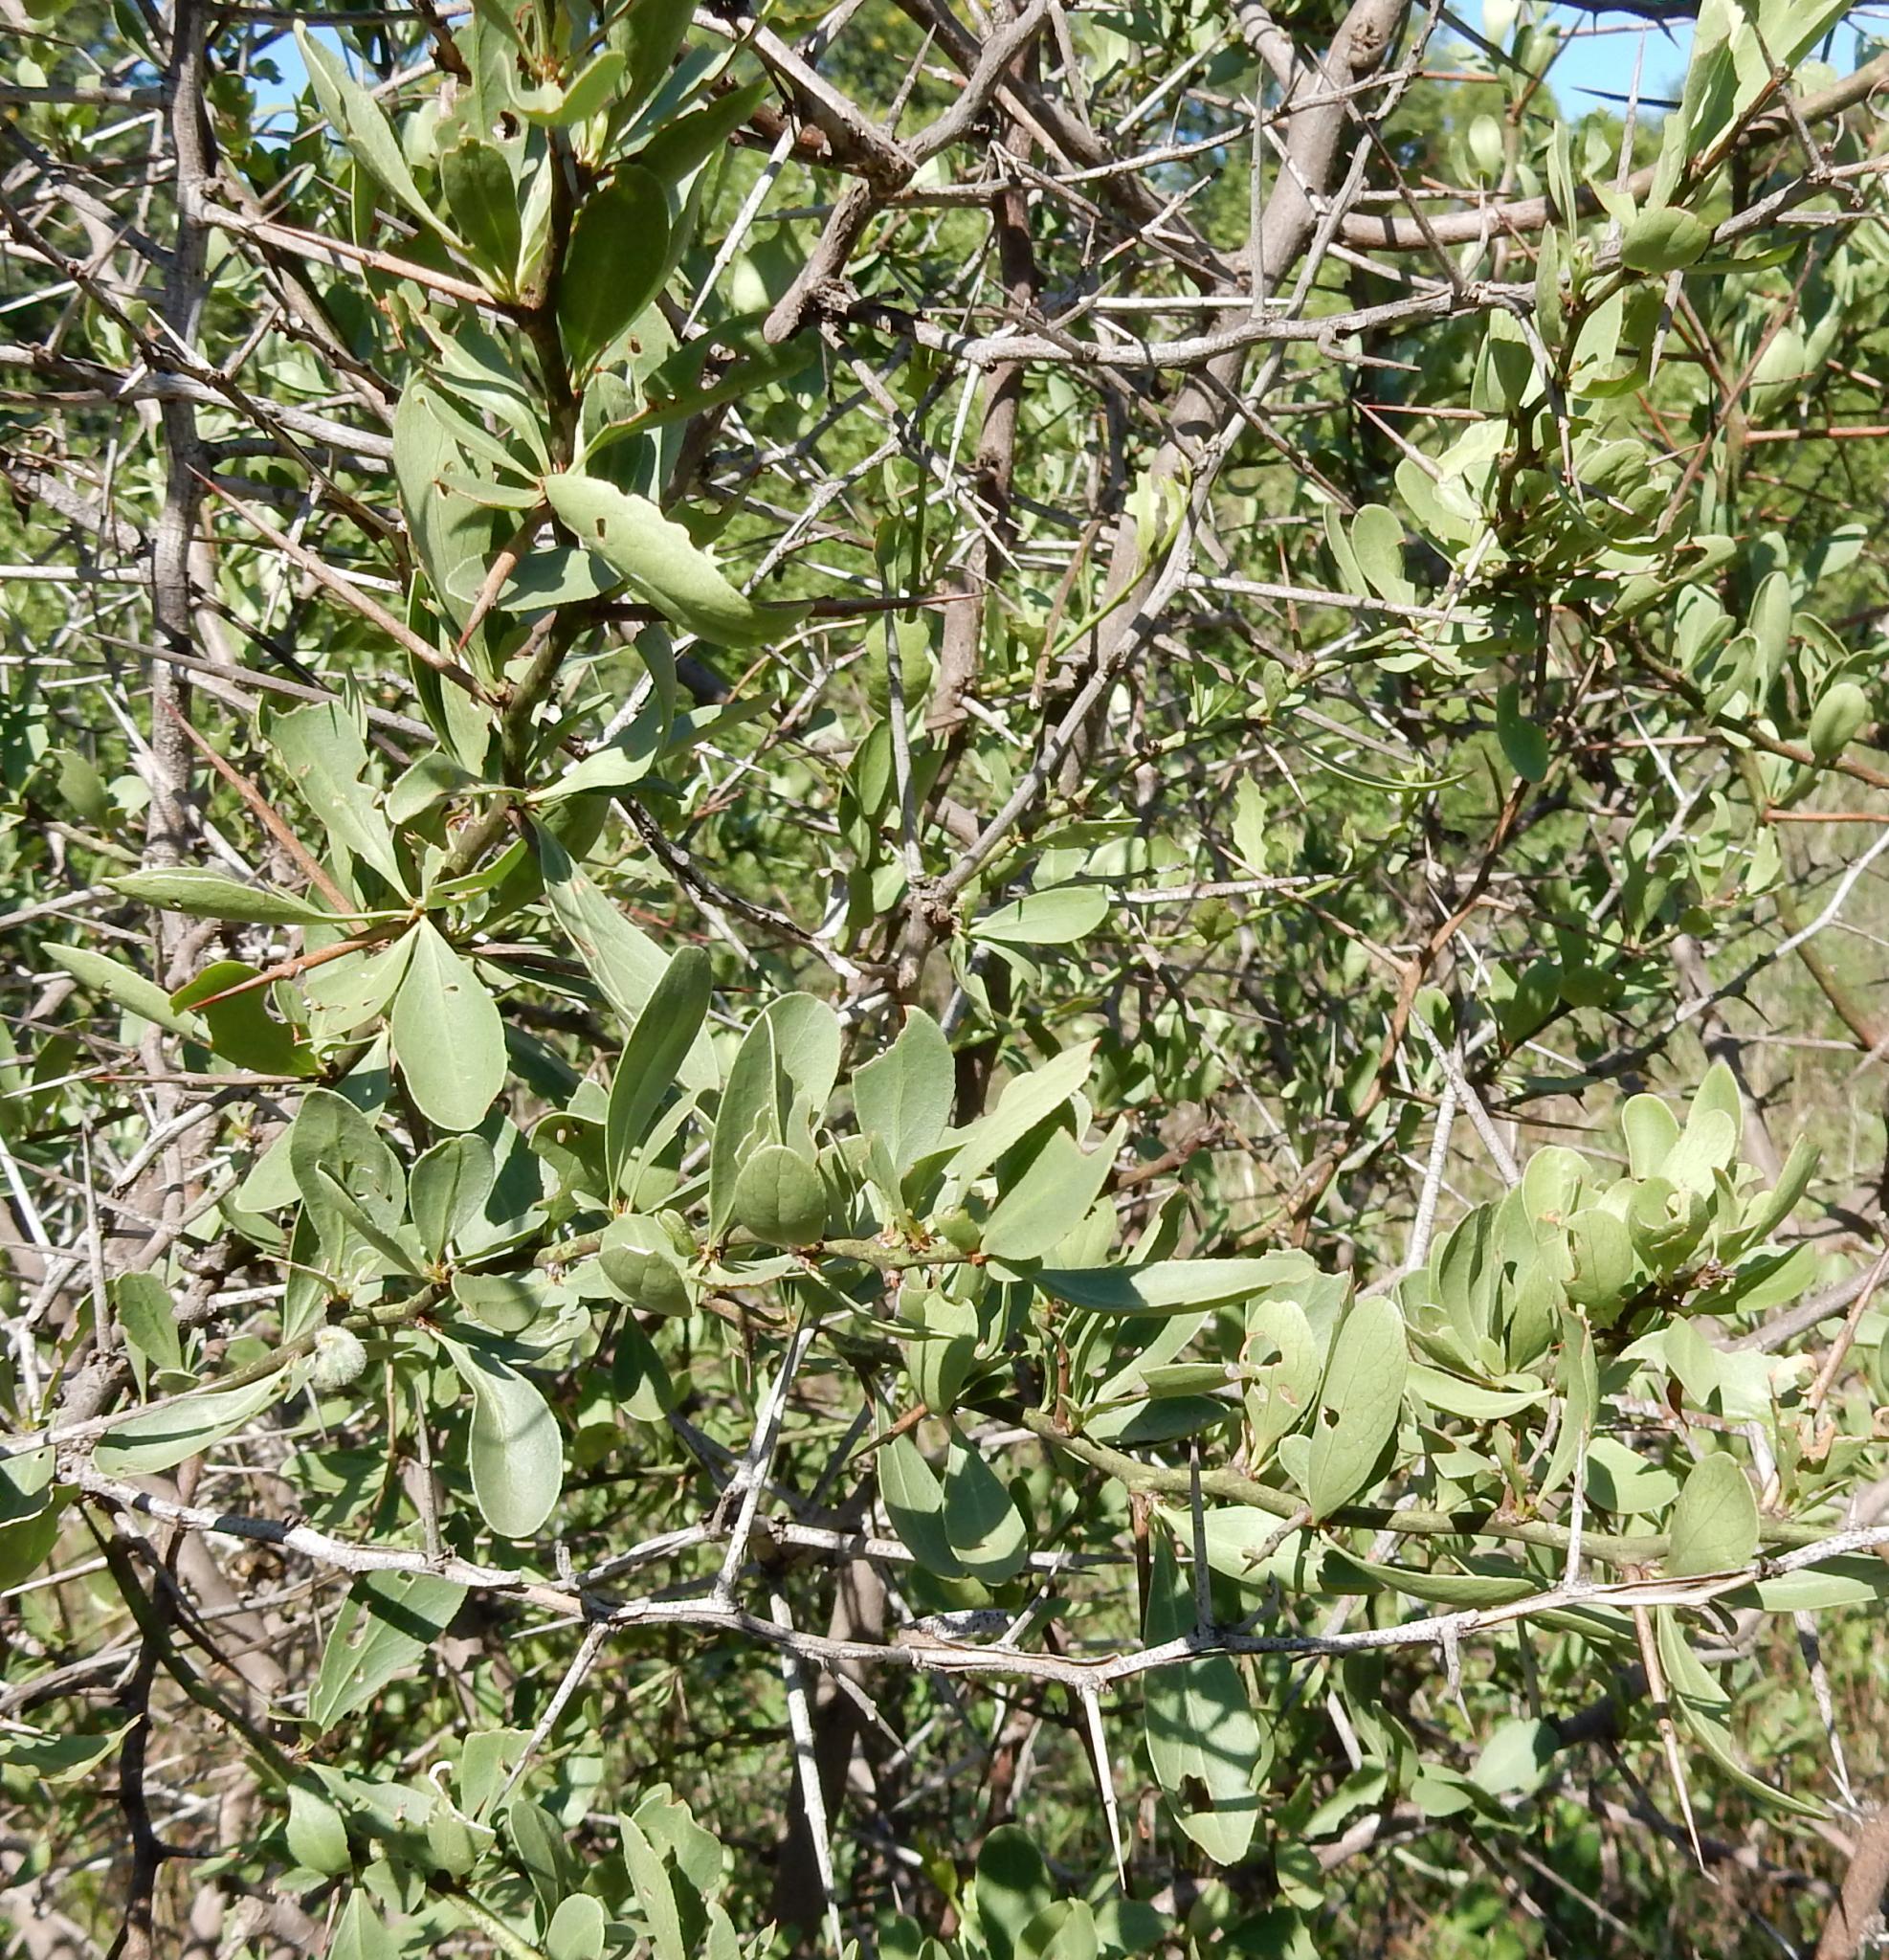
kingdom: Plantae
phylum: Tracheophyta
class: Magnoliopsida
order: Celastrales
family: Celastraceae
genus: Gymnosporia
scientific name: Gymnosporia buxifolia
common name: Common spike-thorn
